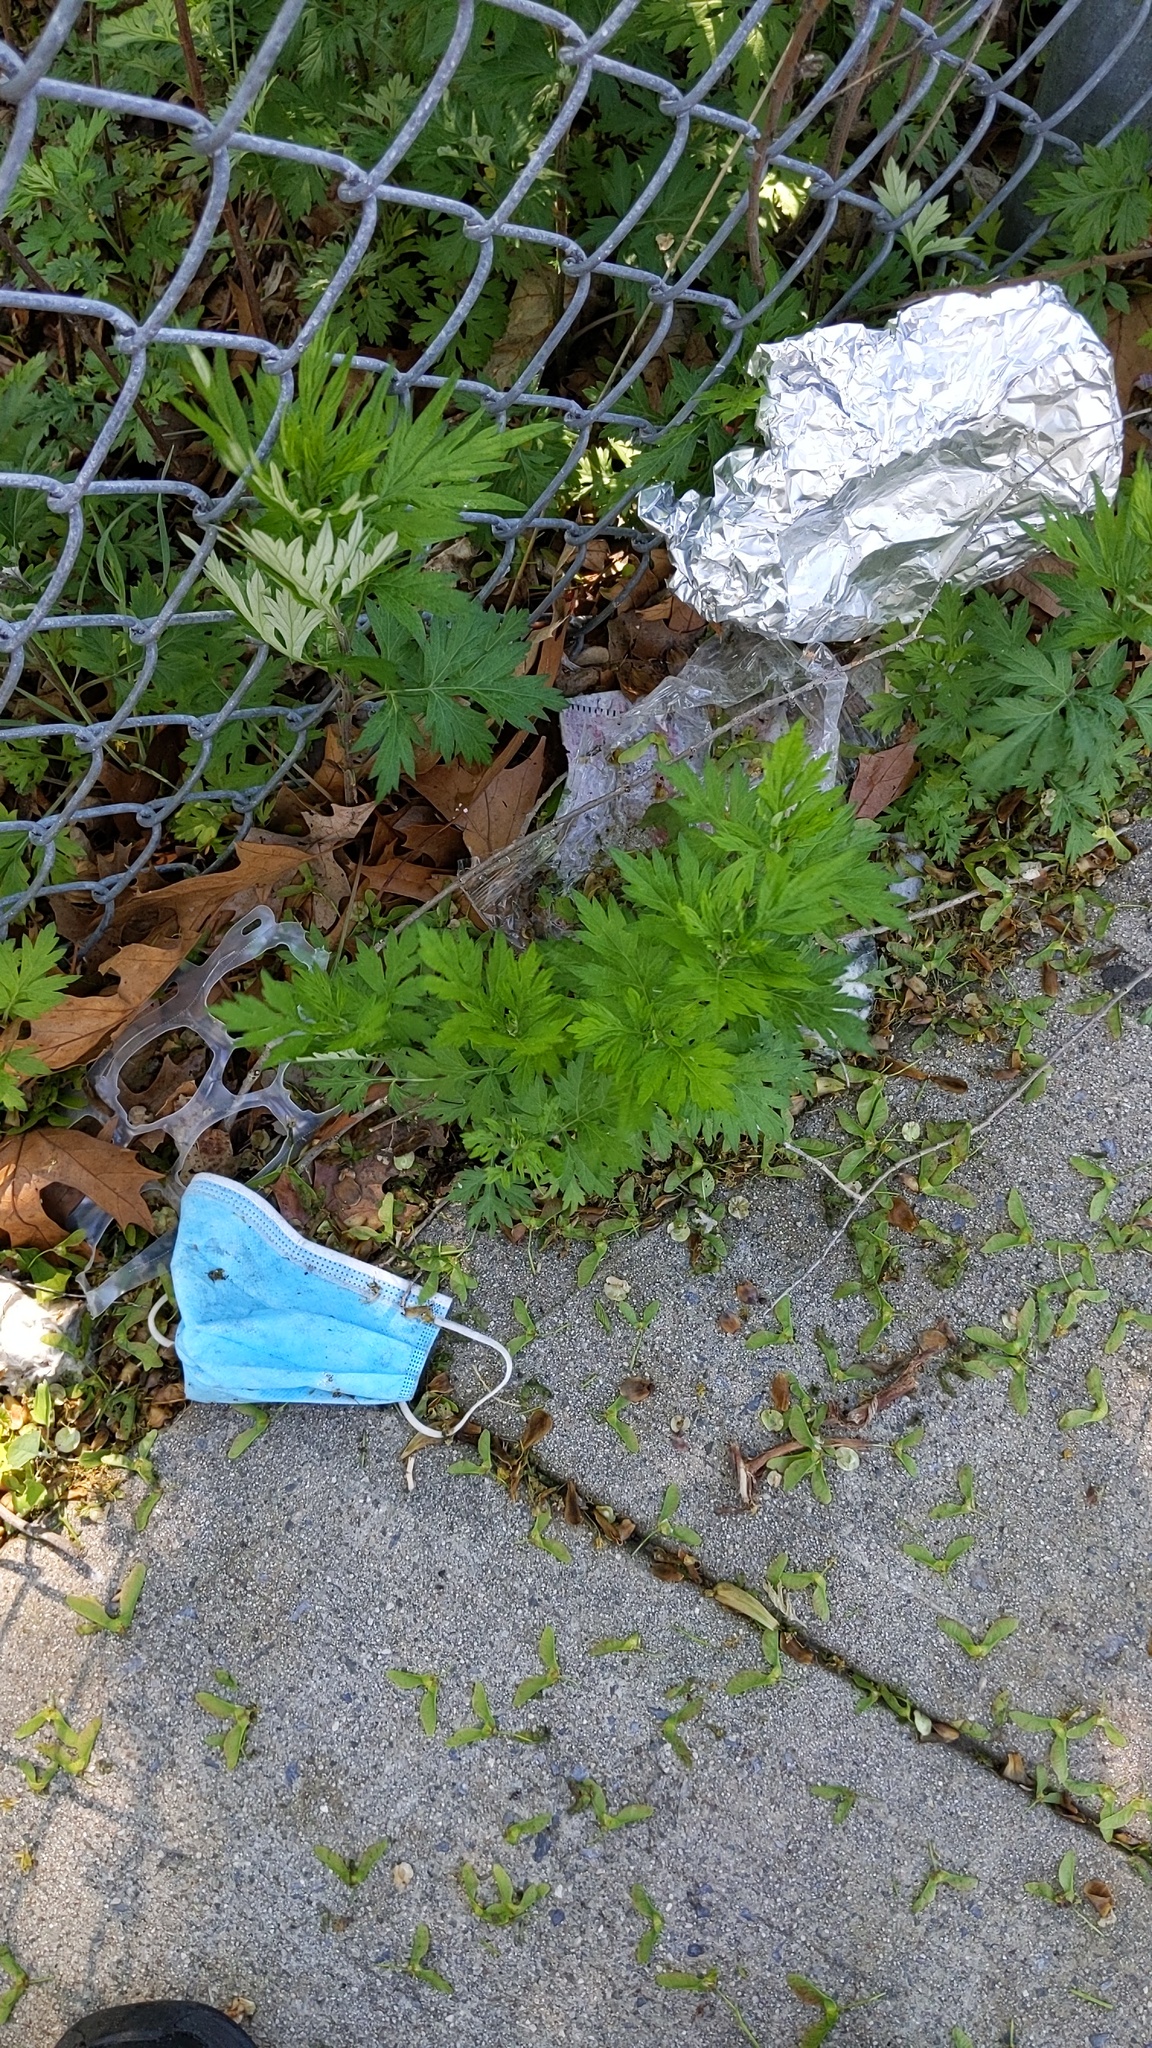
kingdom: Plantae
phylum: Tracheophyta
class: Magnoliopsida
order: Asterales
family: Asteraceae
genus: Artemisia
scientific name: Artemisia vulgaris
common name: Mugwort
